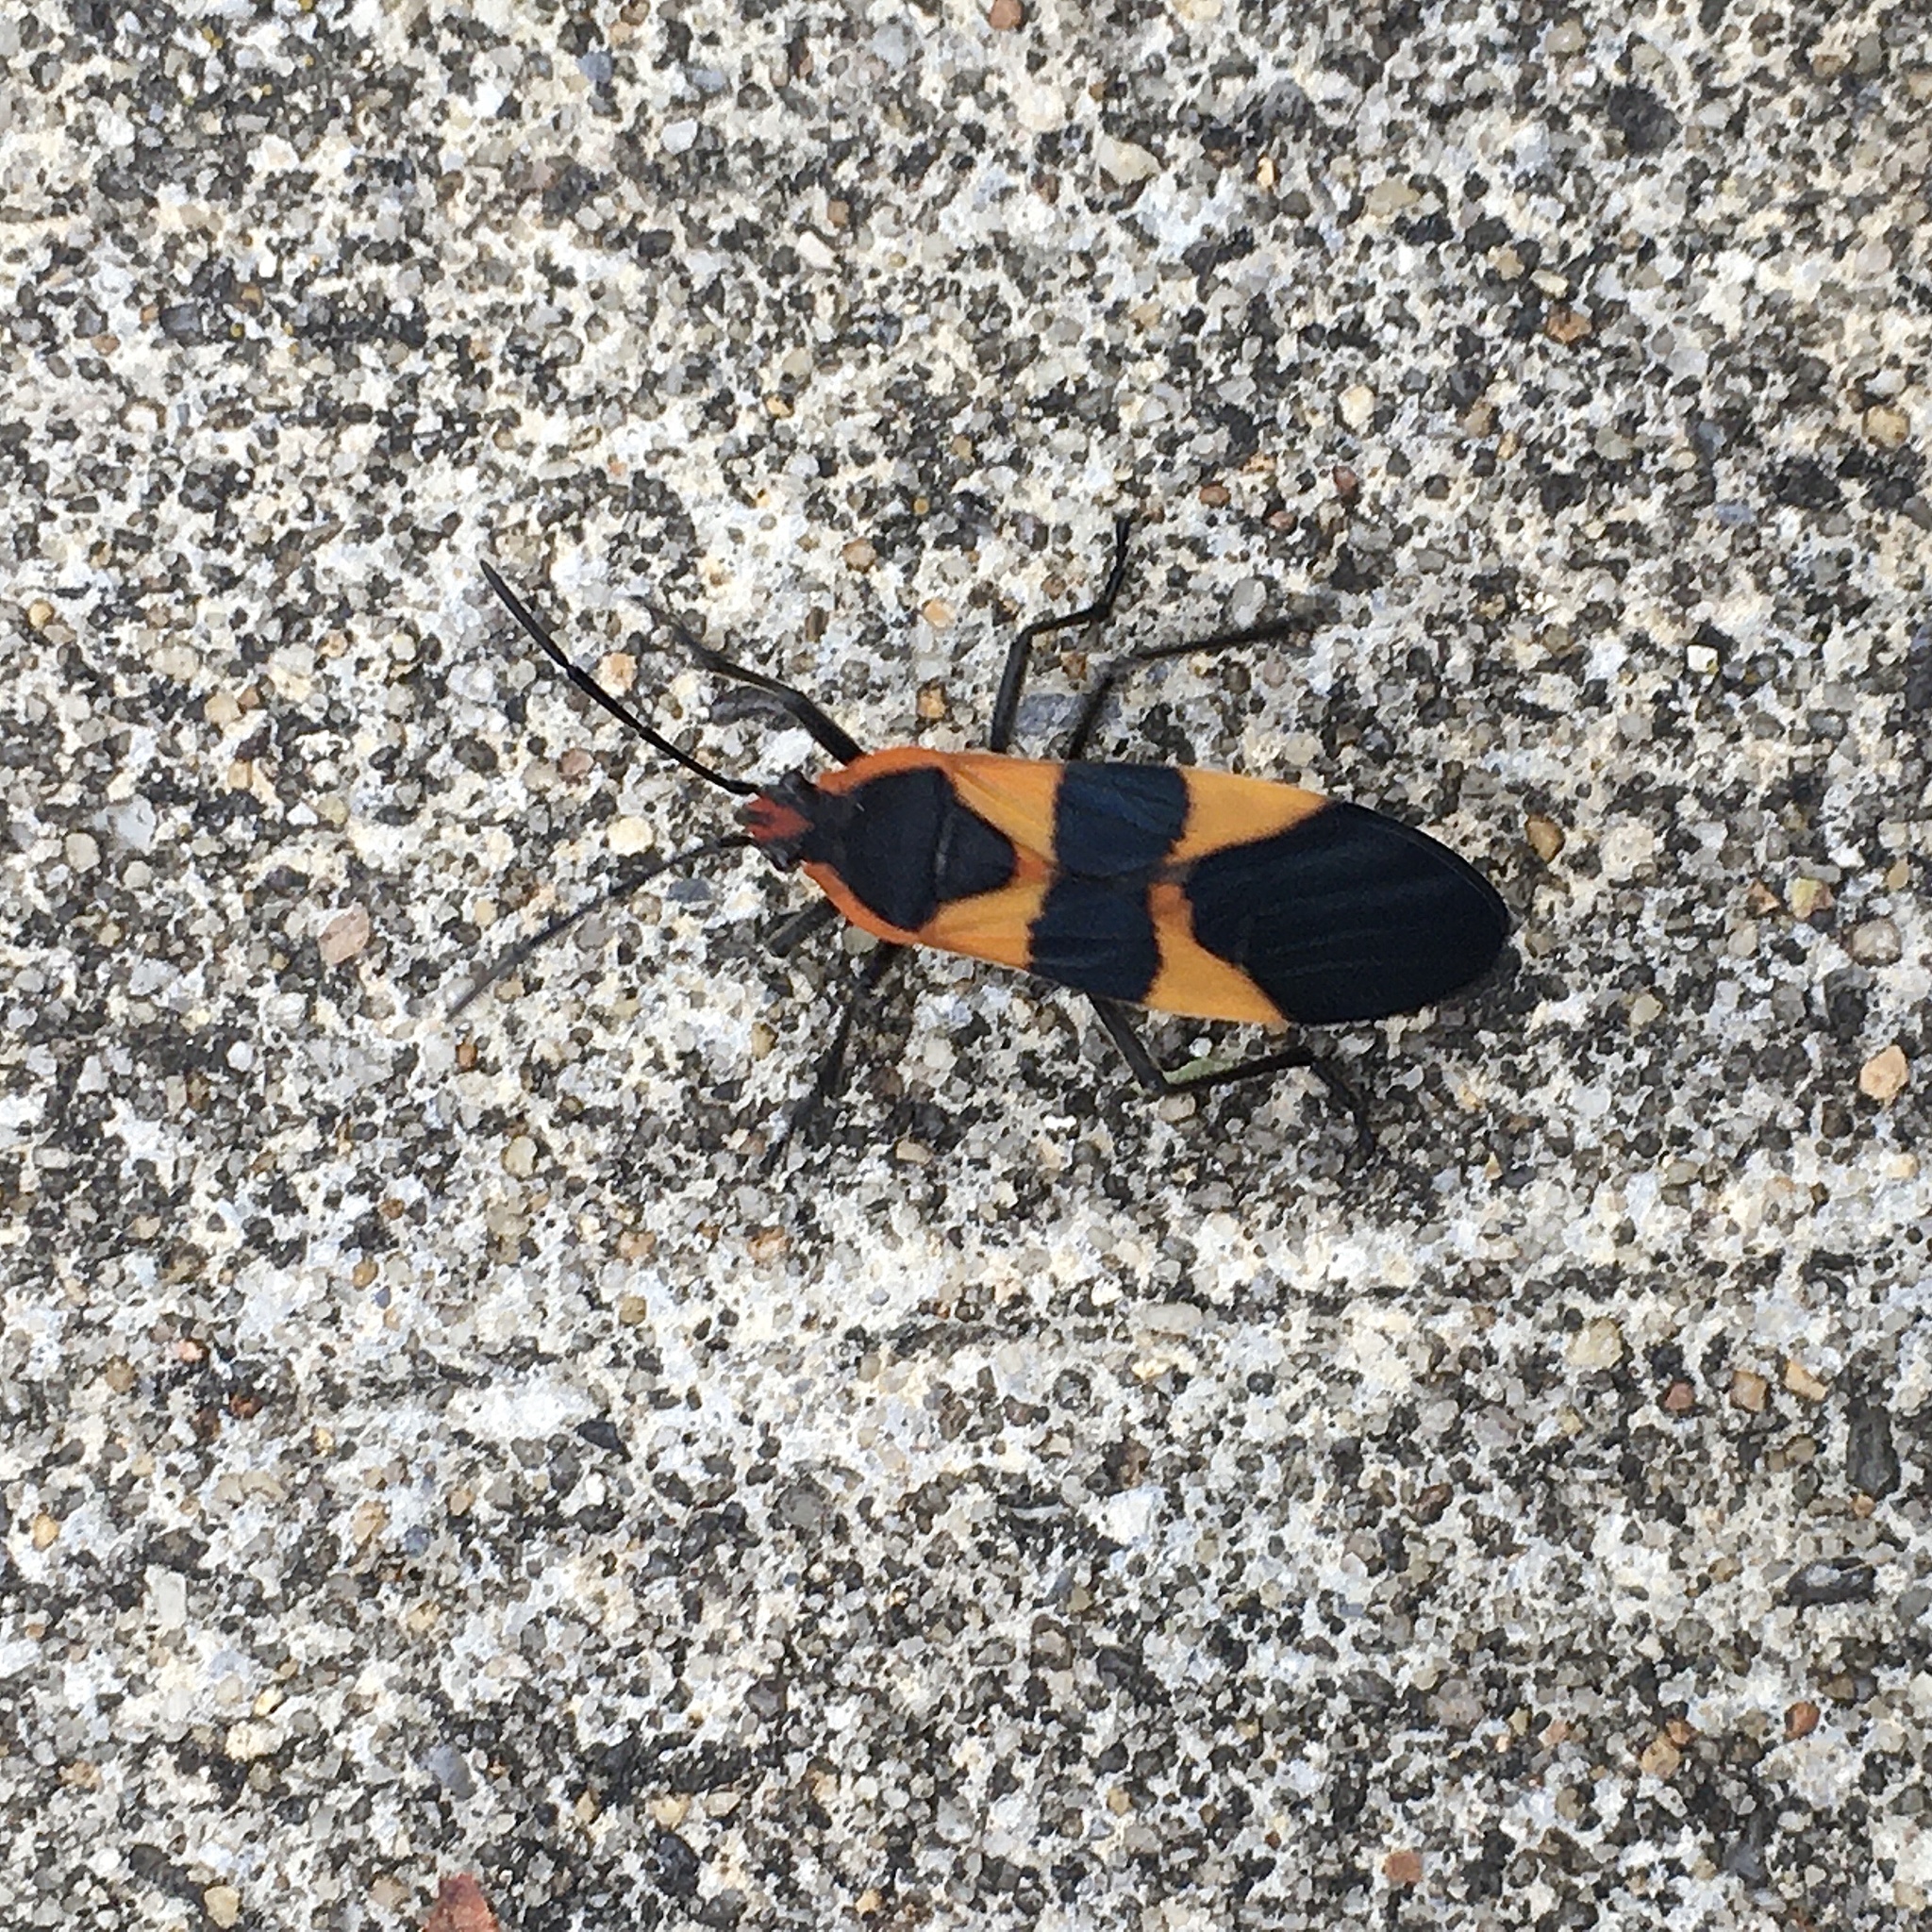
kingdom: Animalia
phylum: Arthropoda
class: Insecta
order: Hemiptera
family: Lygaeidae
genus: Oncopeltus
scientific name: Oncopeltus fasciatus
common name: Large milkweed bug
